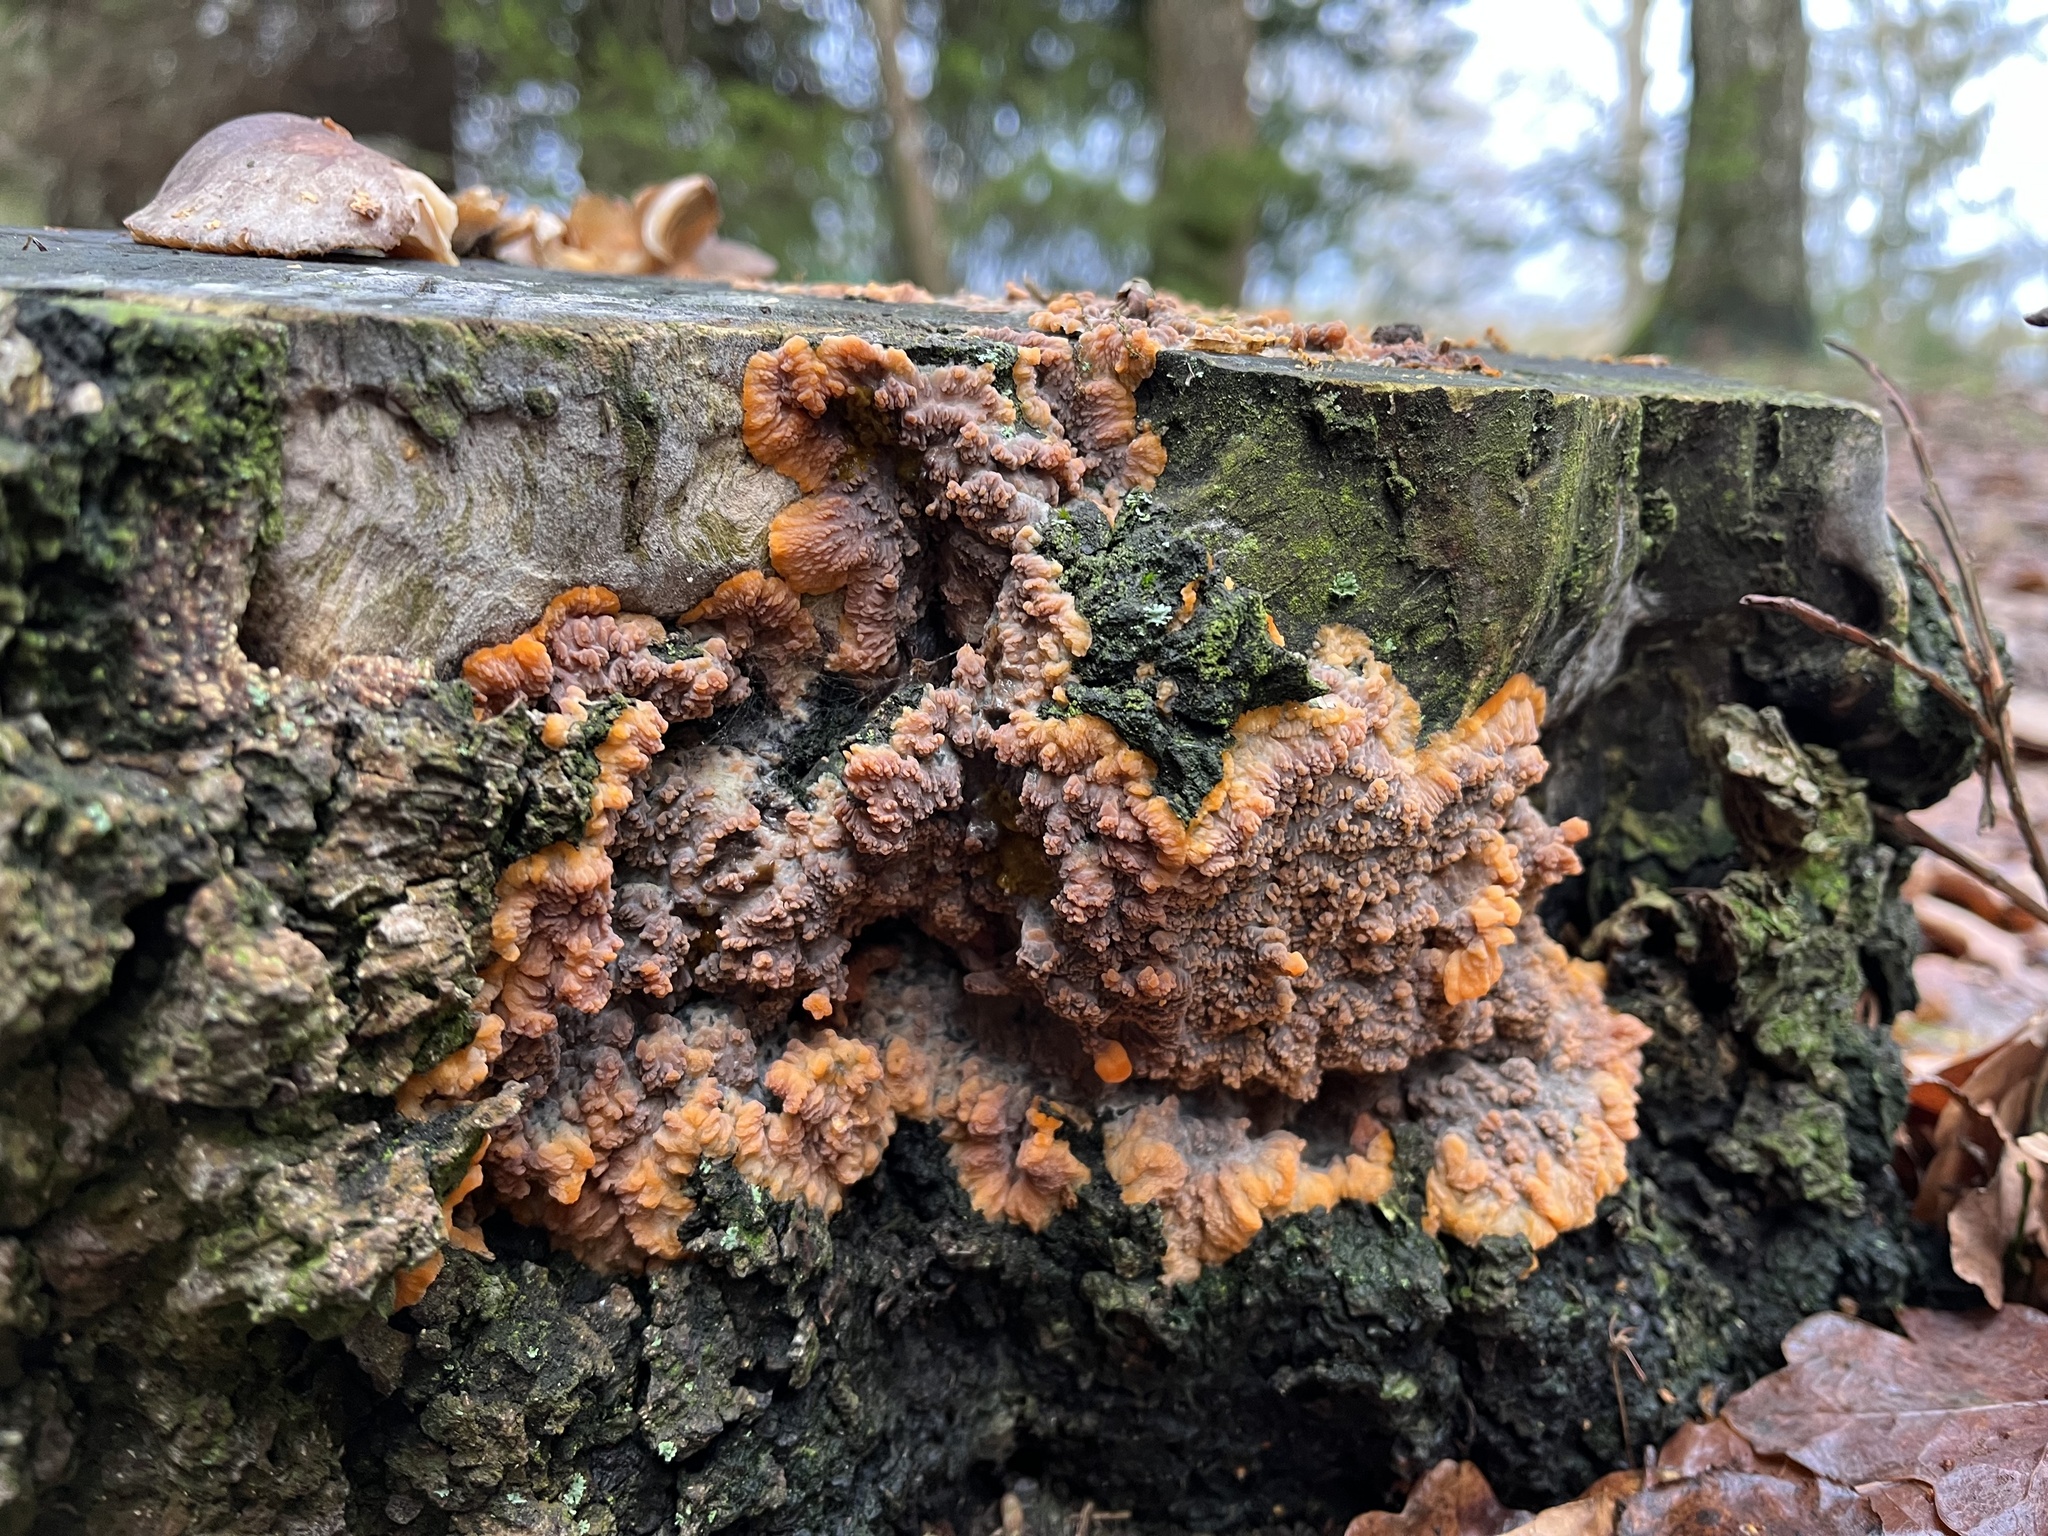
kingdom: Fungi
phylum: Basidiomycota
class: Agaricomycetes
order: Polyporales
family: Meruliaceae
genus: Phlebia
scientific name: Phlebia radiata
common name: Wrinkled crust
